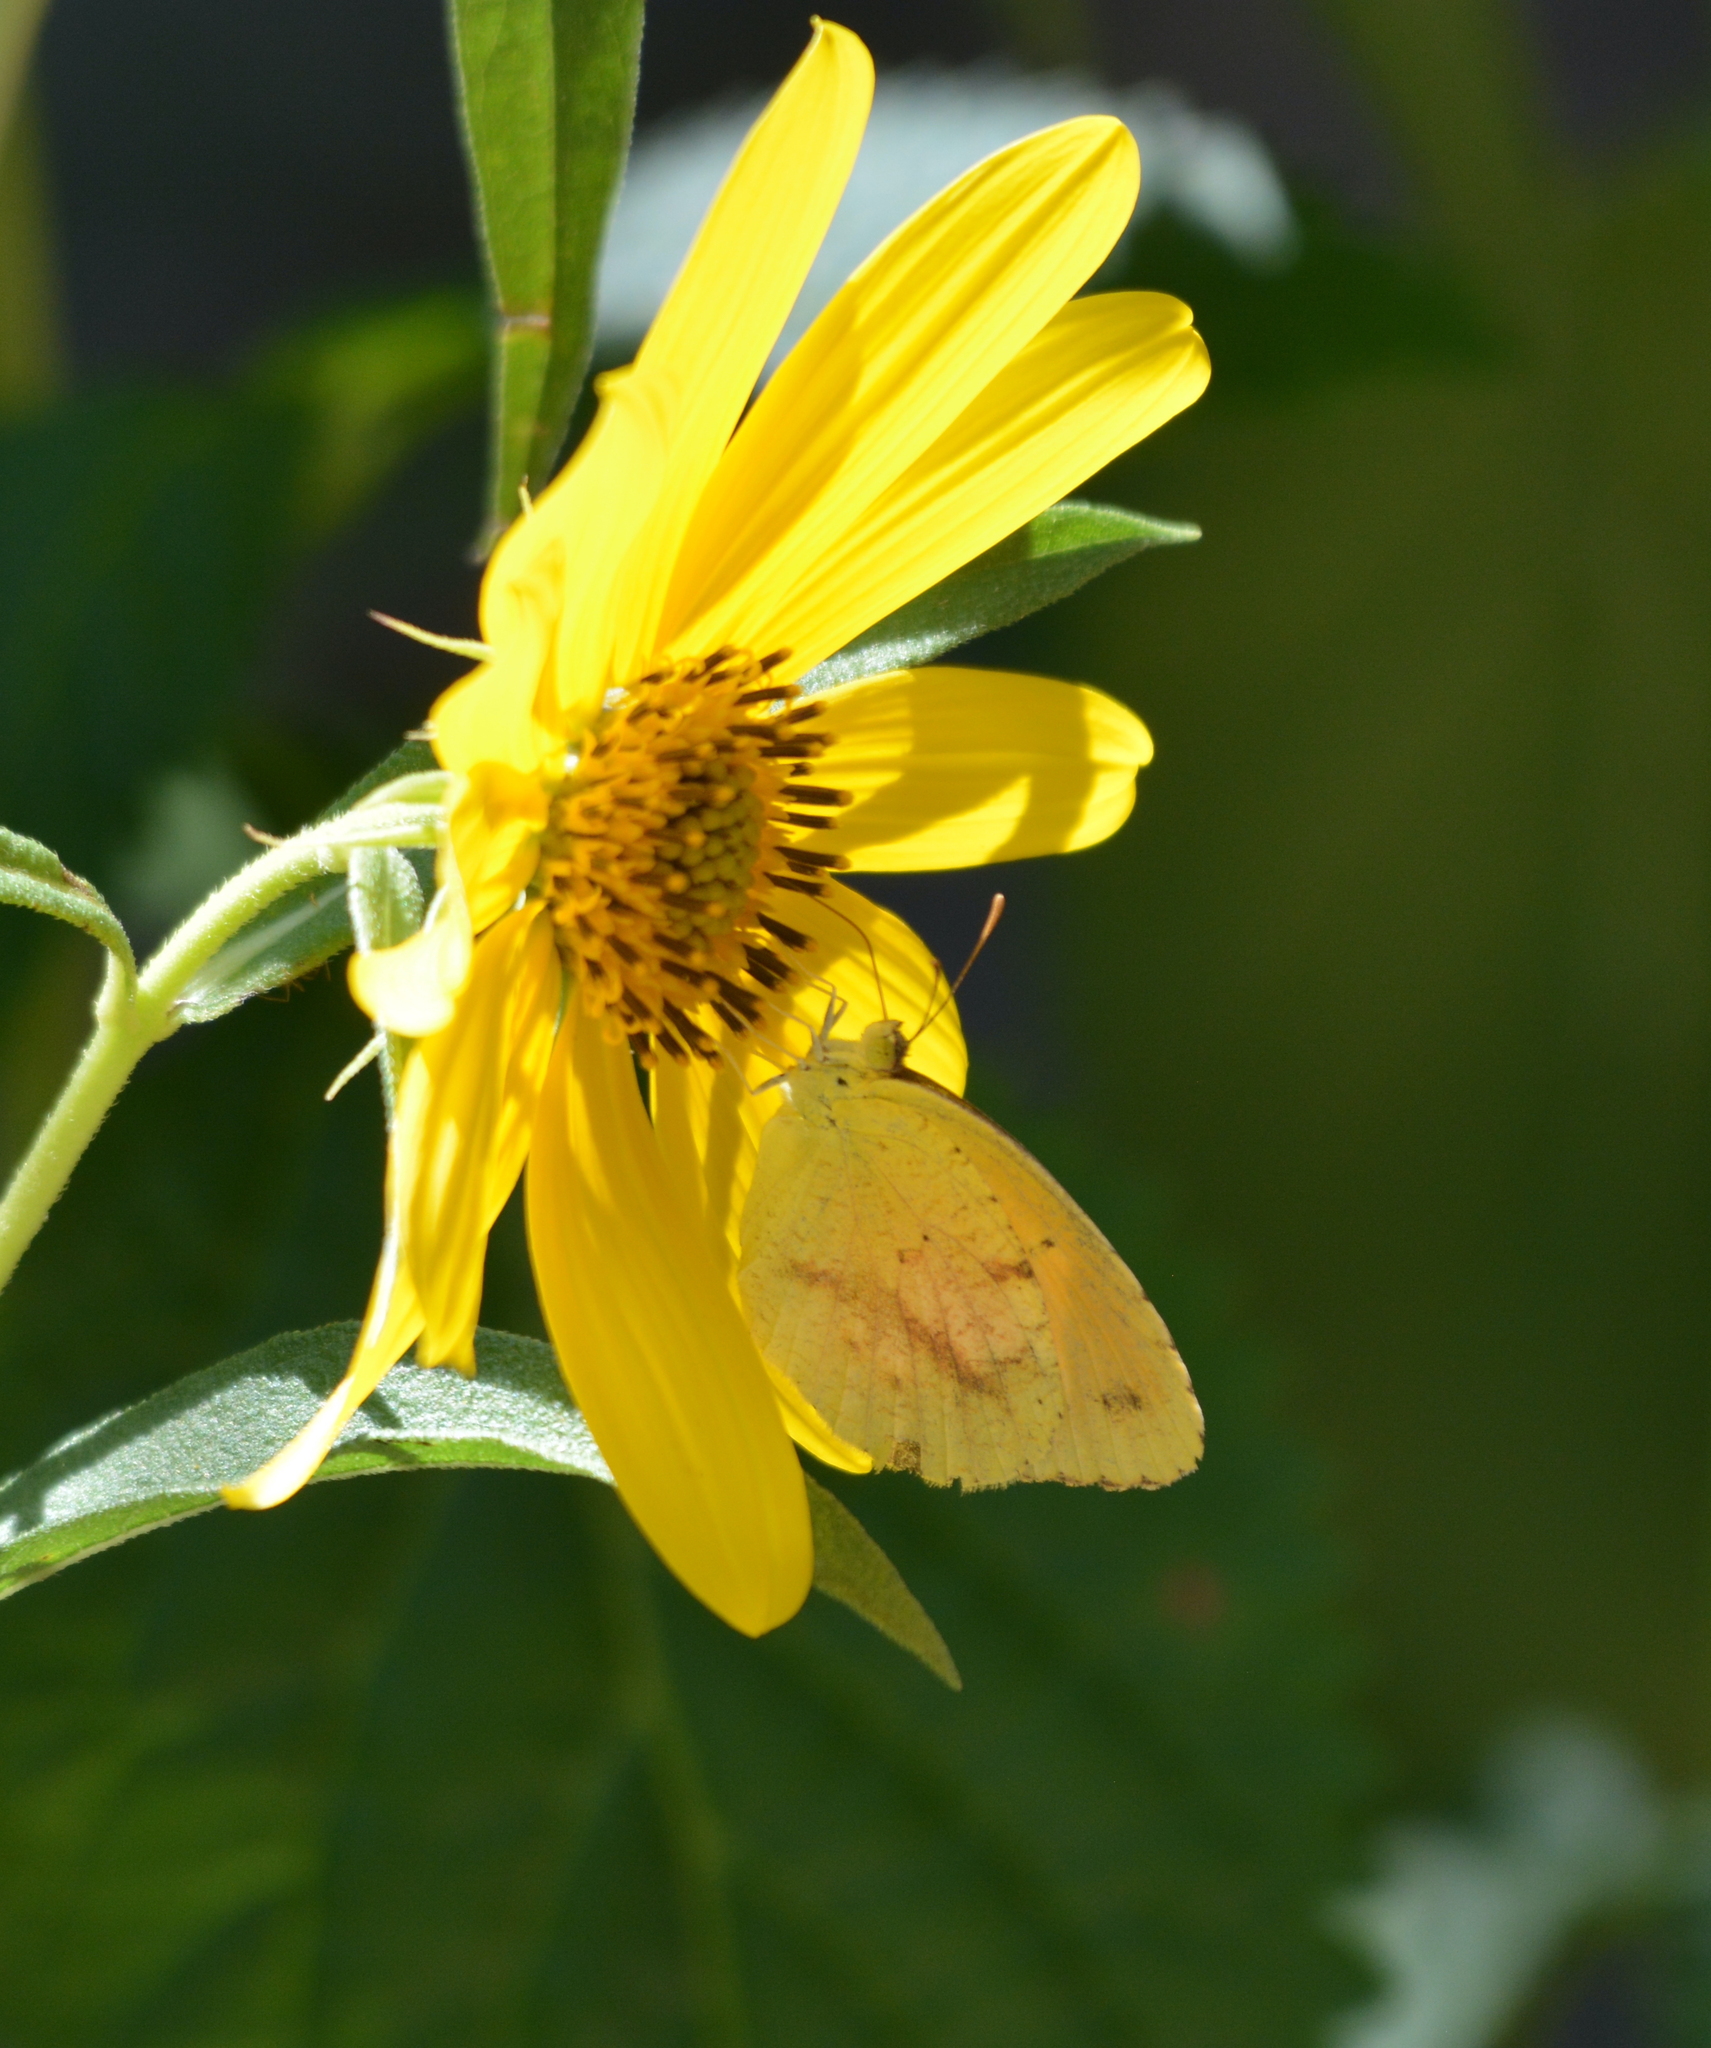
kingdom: Animalia
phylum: Arthropoda
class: Insecta
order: Lepidoptera
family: Pieridae
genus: Abaeis
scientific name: Abaeis nicippe
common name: Sleepy orange
